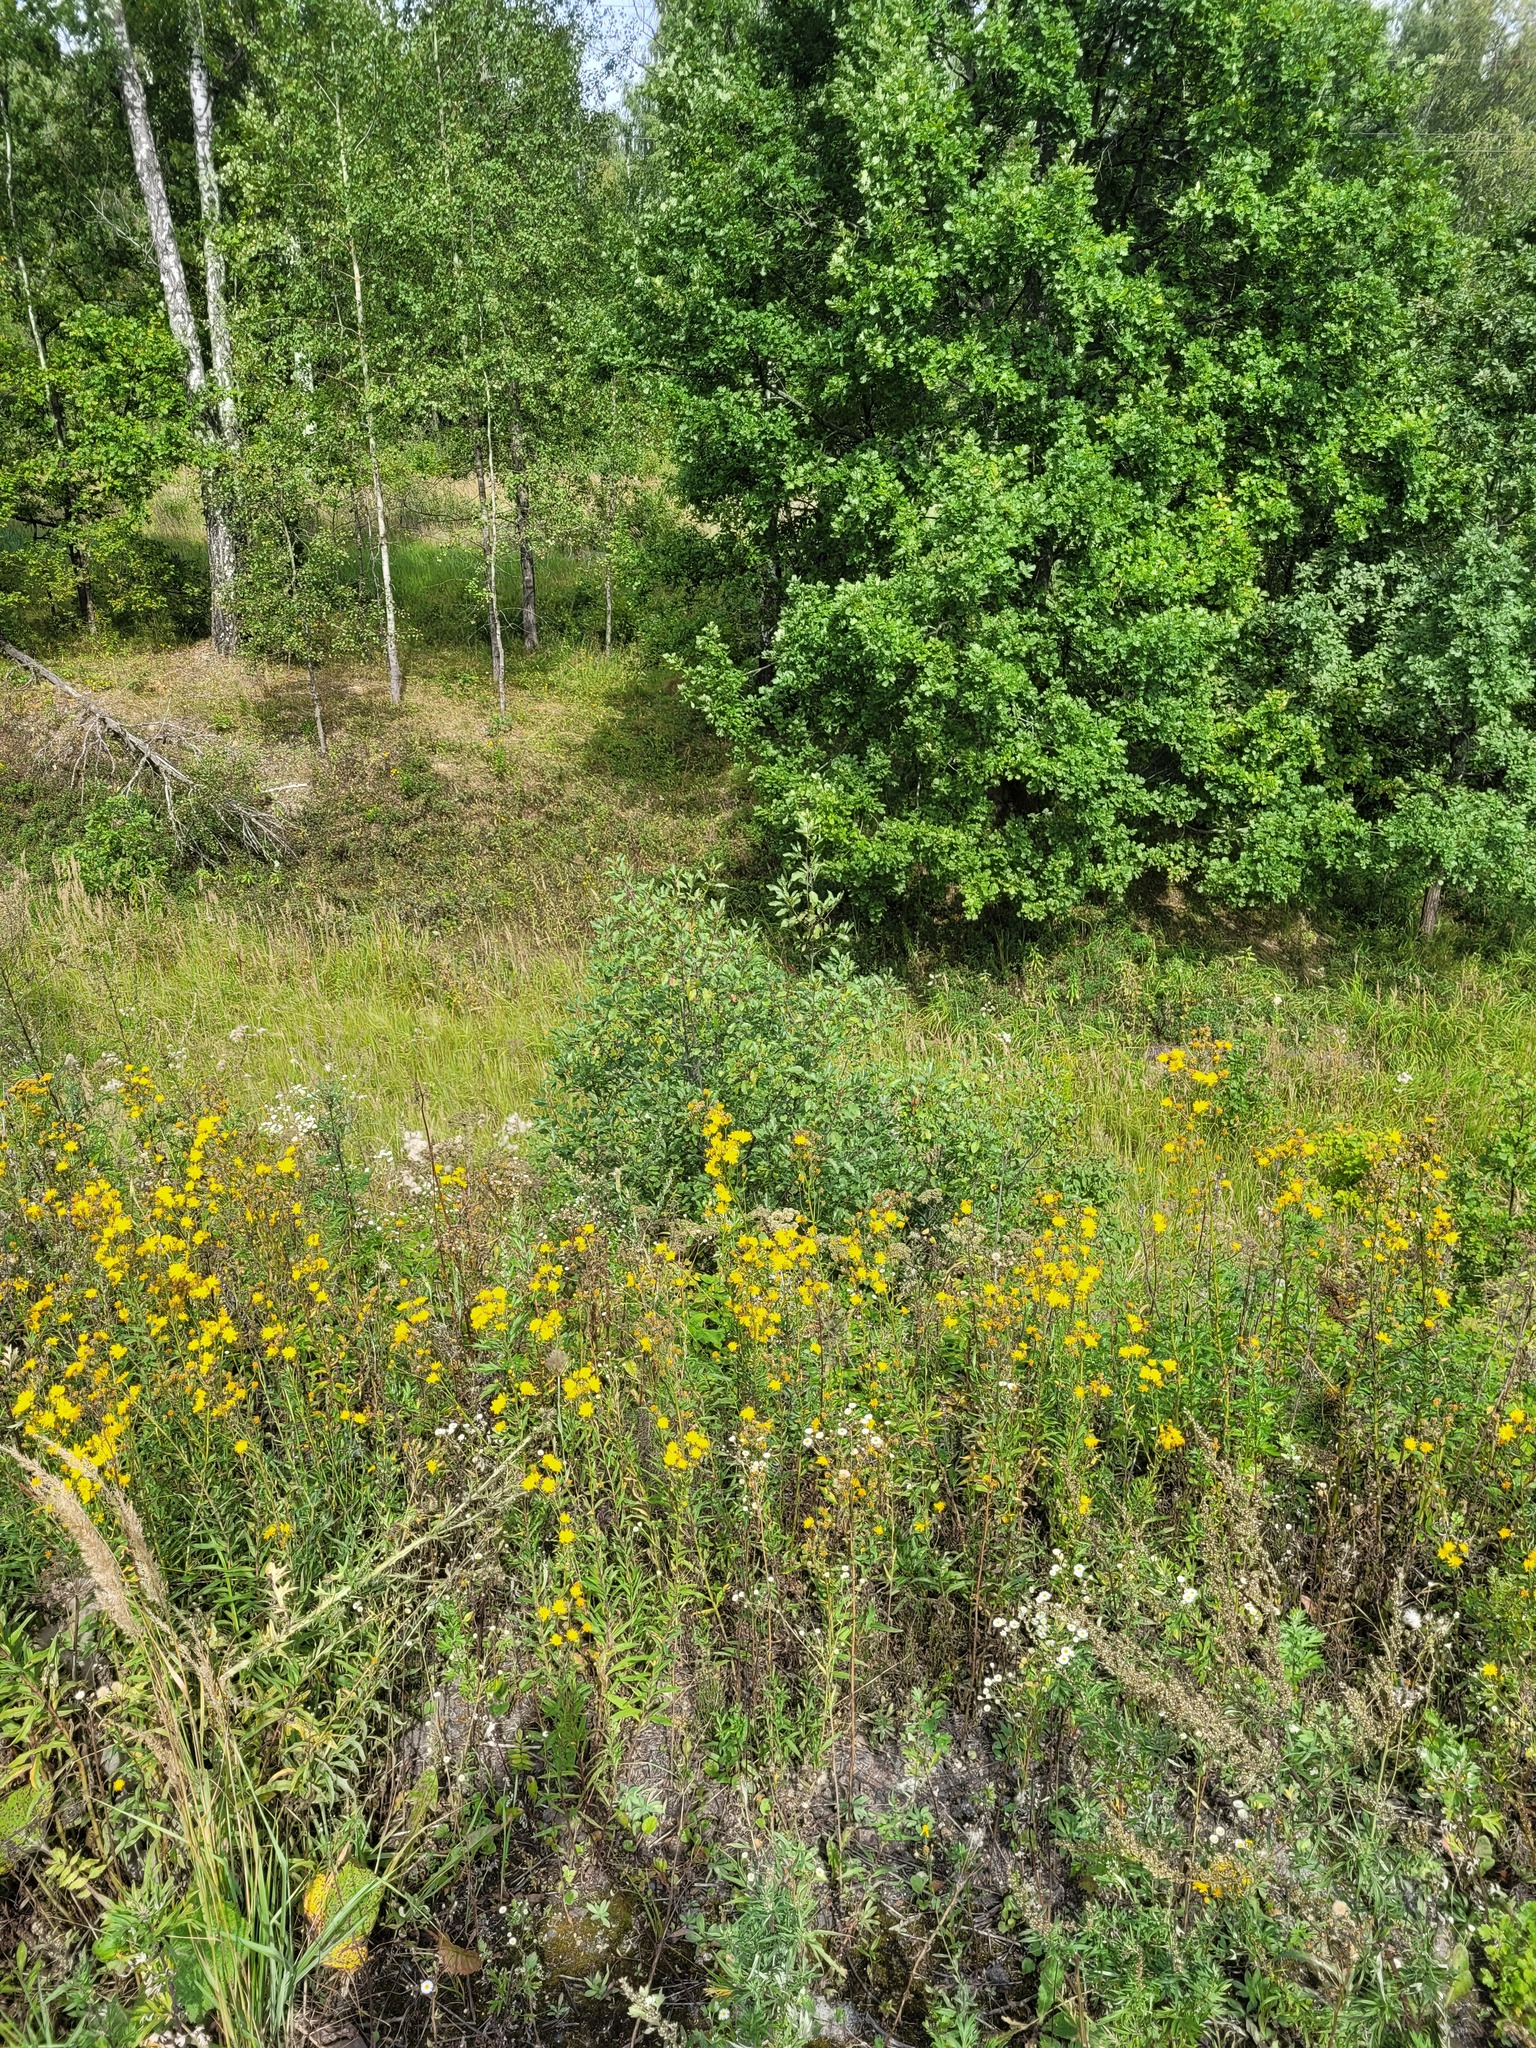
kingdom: Plantae
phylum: Tracheophyta
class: Magnoliopsida
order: Rosales
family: Rhamnaceae
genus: Frangula
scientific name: Frangula alnus
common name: Alder buckthorn
